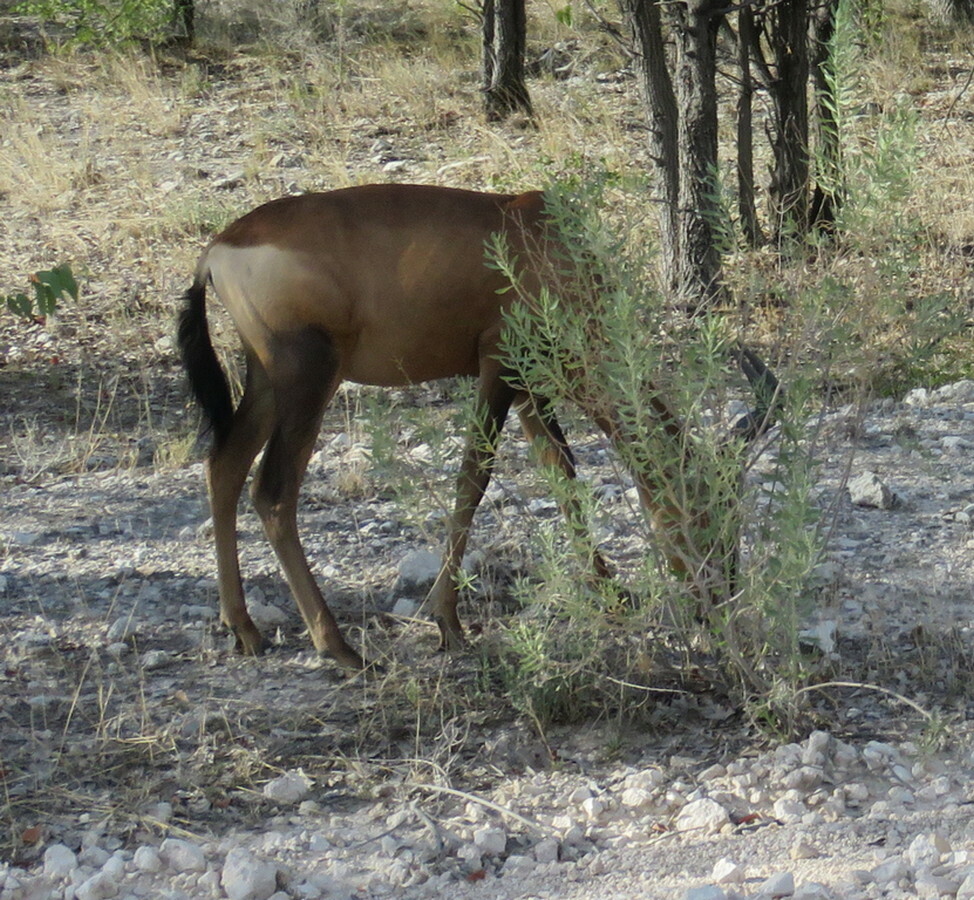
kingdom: Animalia
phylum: Chordata
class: Mammalia
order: Artiodactyla
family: Bovidae
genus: Alcelaphus
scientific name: Alcelaphus caama
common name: Red hartebeest
